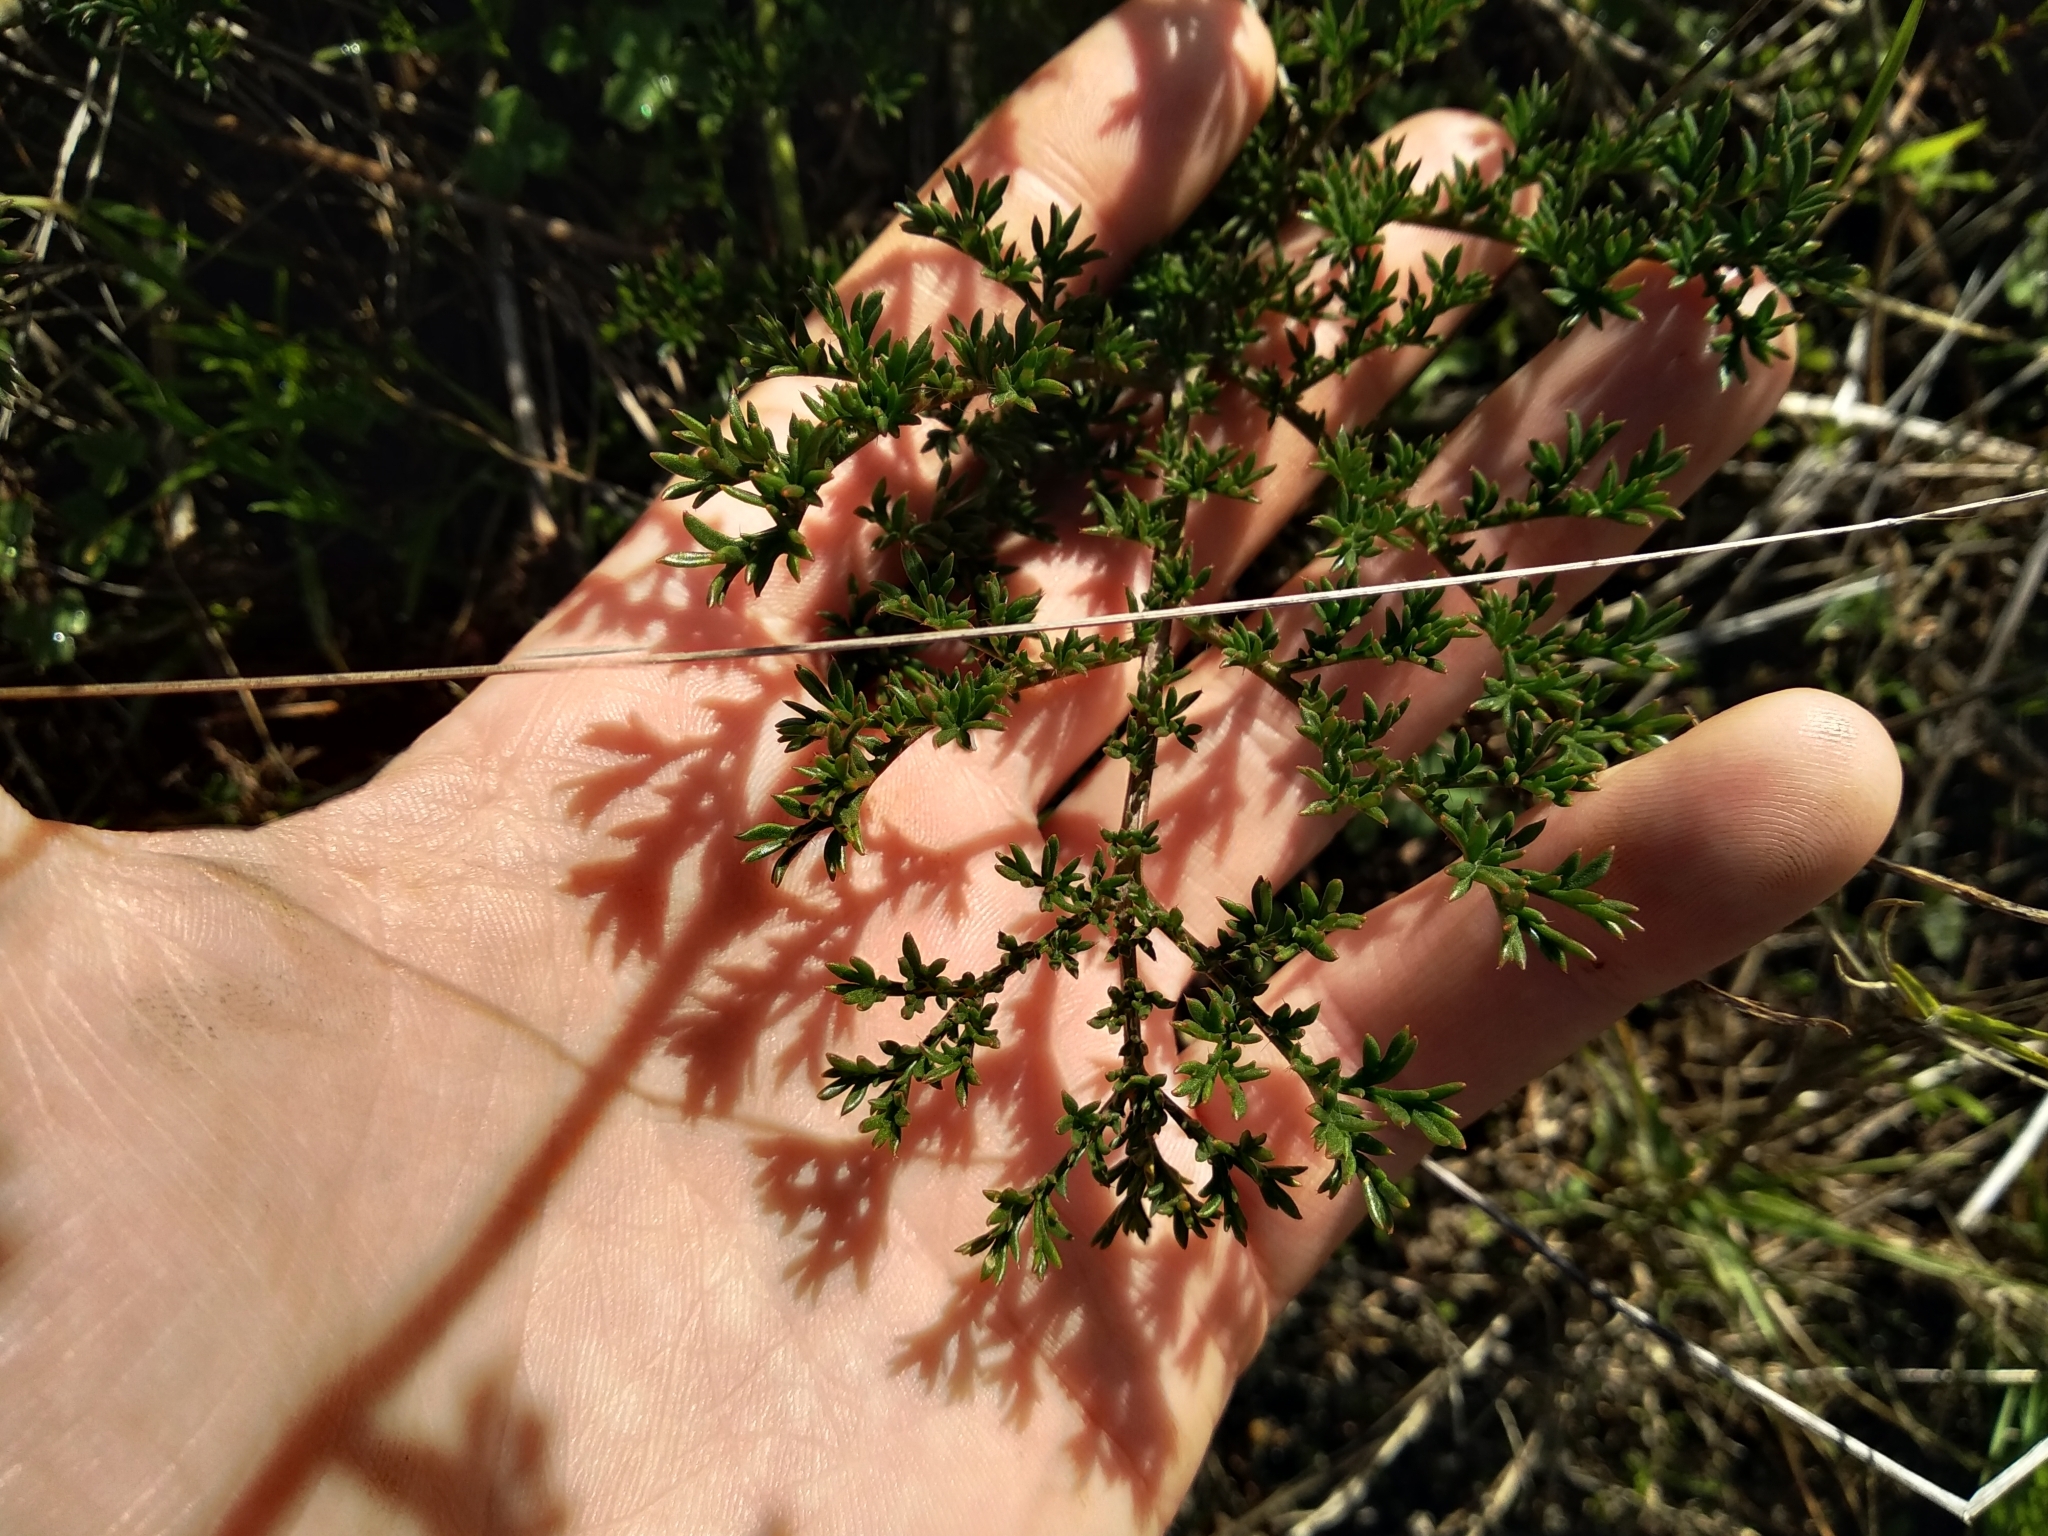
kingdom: Plantae
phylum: Tracheophyta
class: Magnoliopsida
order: Geraniales
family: Geraniaceae
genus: Pelargonium
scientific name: Pelargonium triste
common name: Night-scent pelargonium
